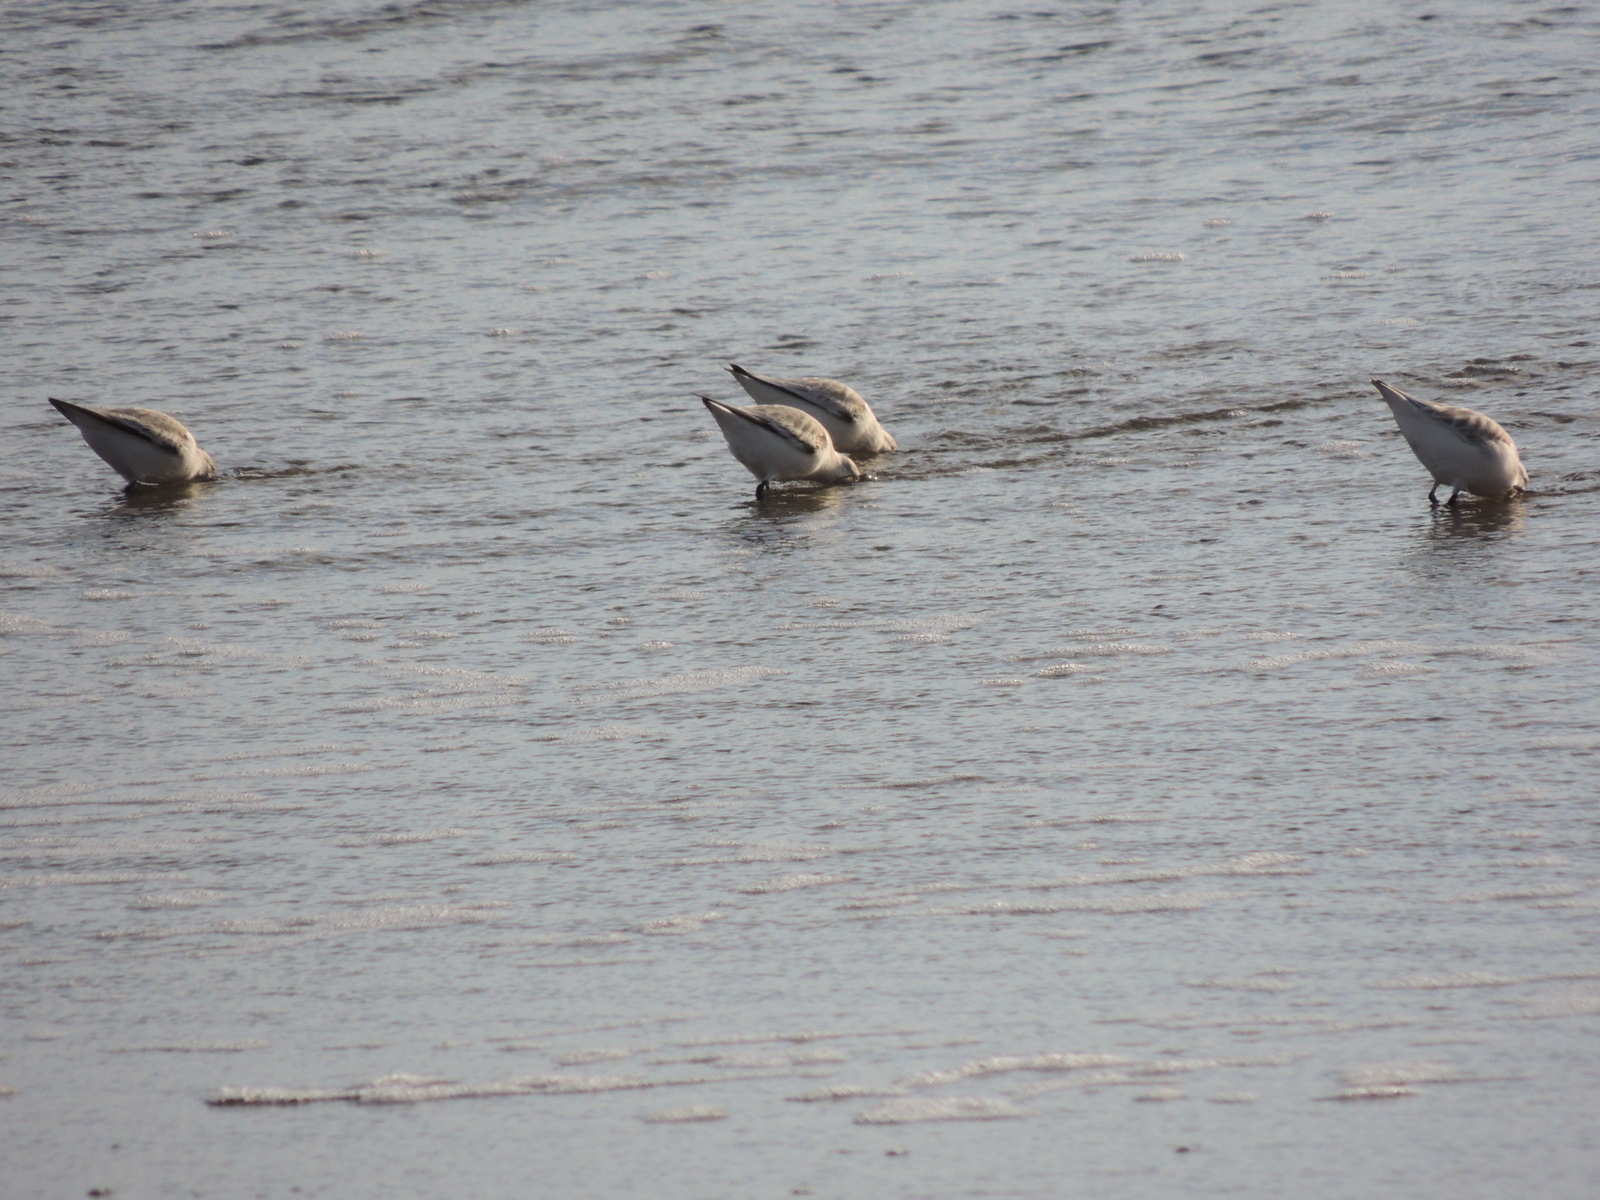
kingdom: Animalia
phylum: Chordata
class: Aves
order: Charadriiformes
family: Scolopacidae
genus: Calidris
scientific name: Calidris alba
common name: Sanderling
